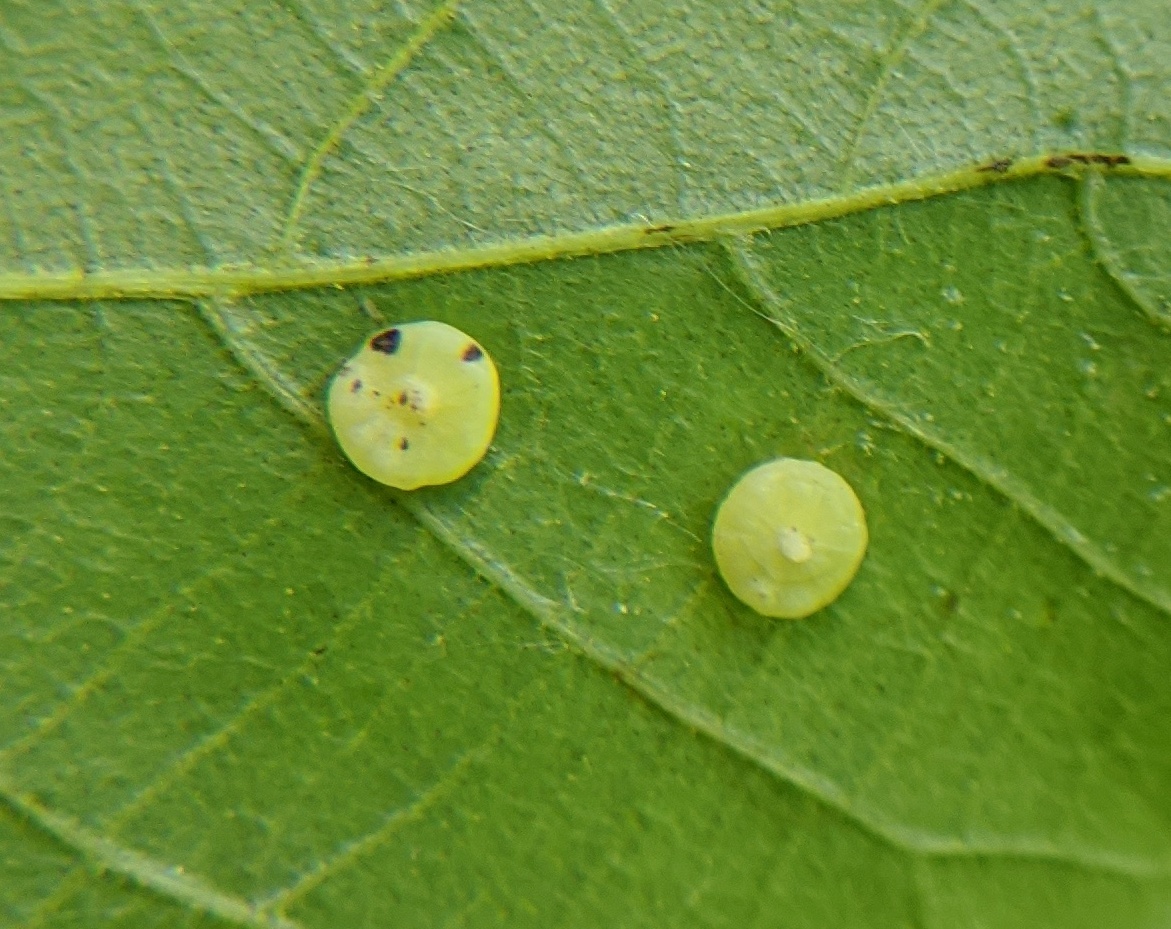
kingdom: Animalia
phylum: Arthropoda
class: Insecta
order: Diptera
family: Cecidomyiidae
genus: Caryomyia
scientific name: Caryomyia biretta
